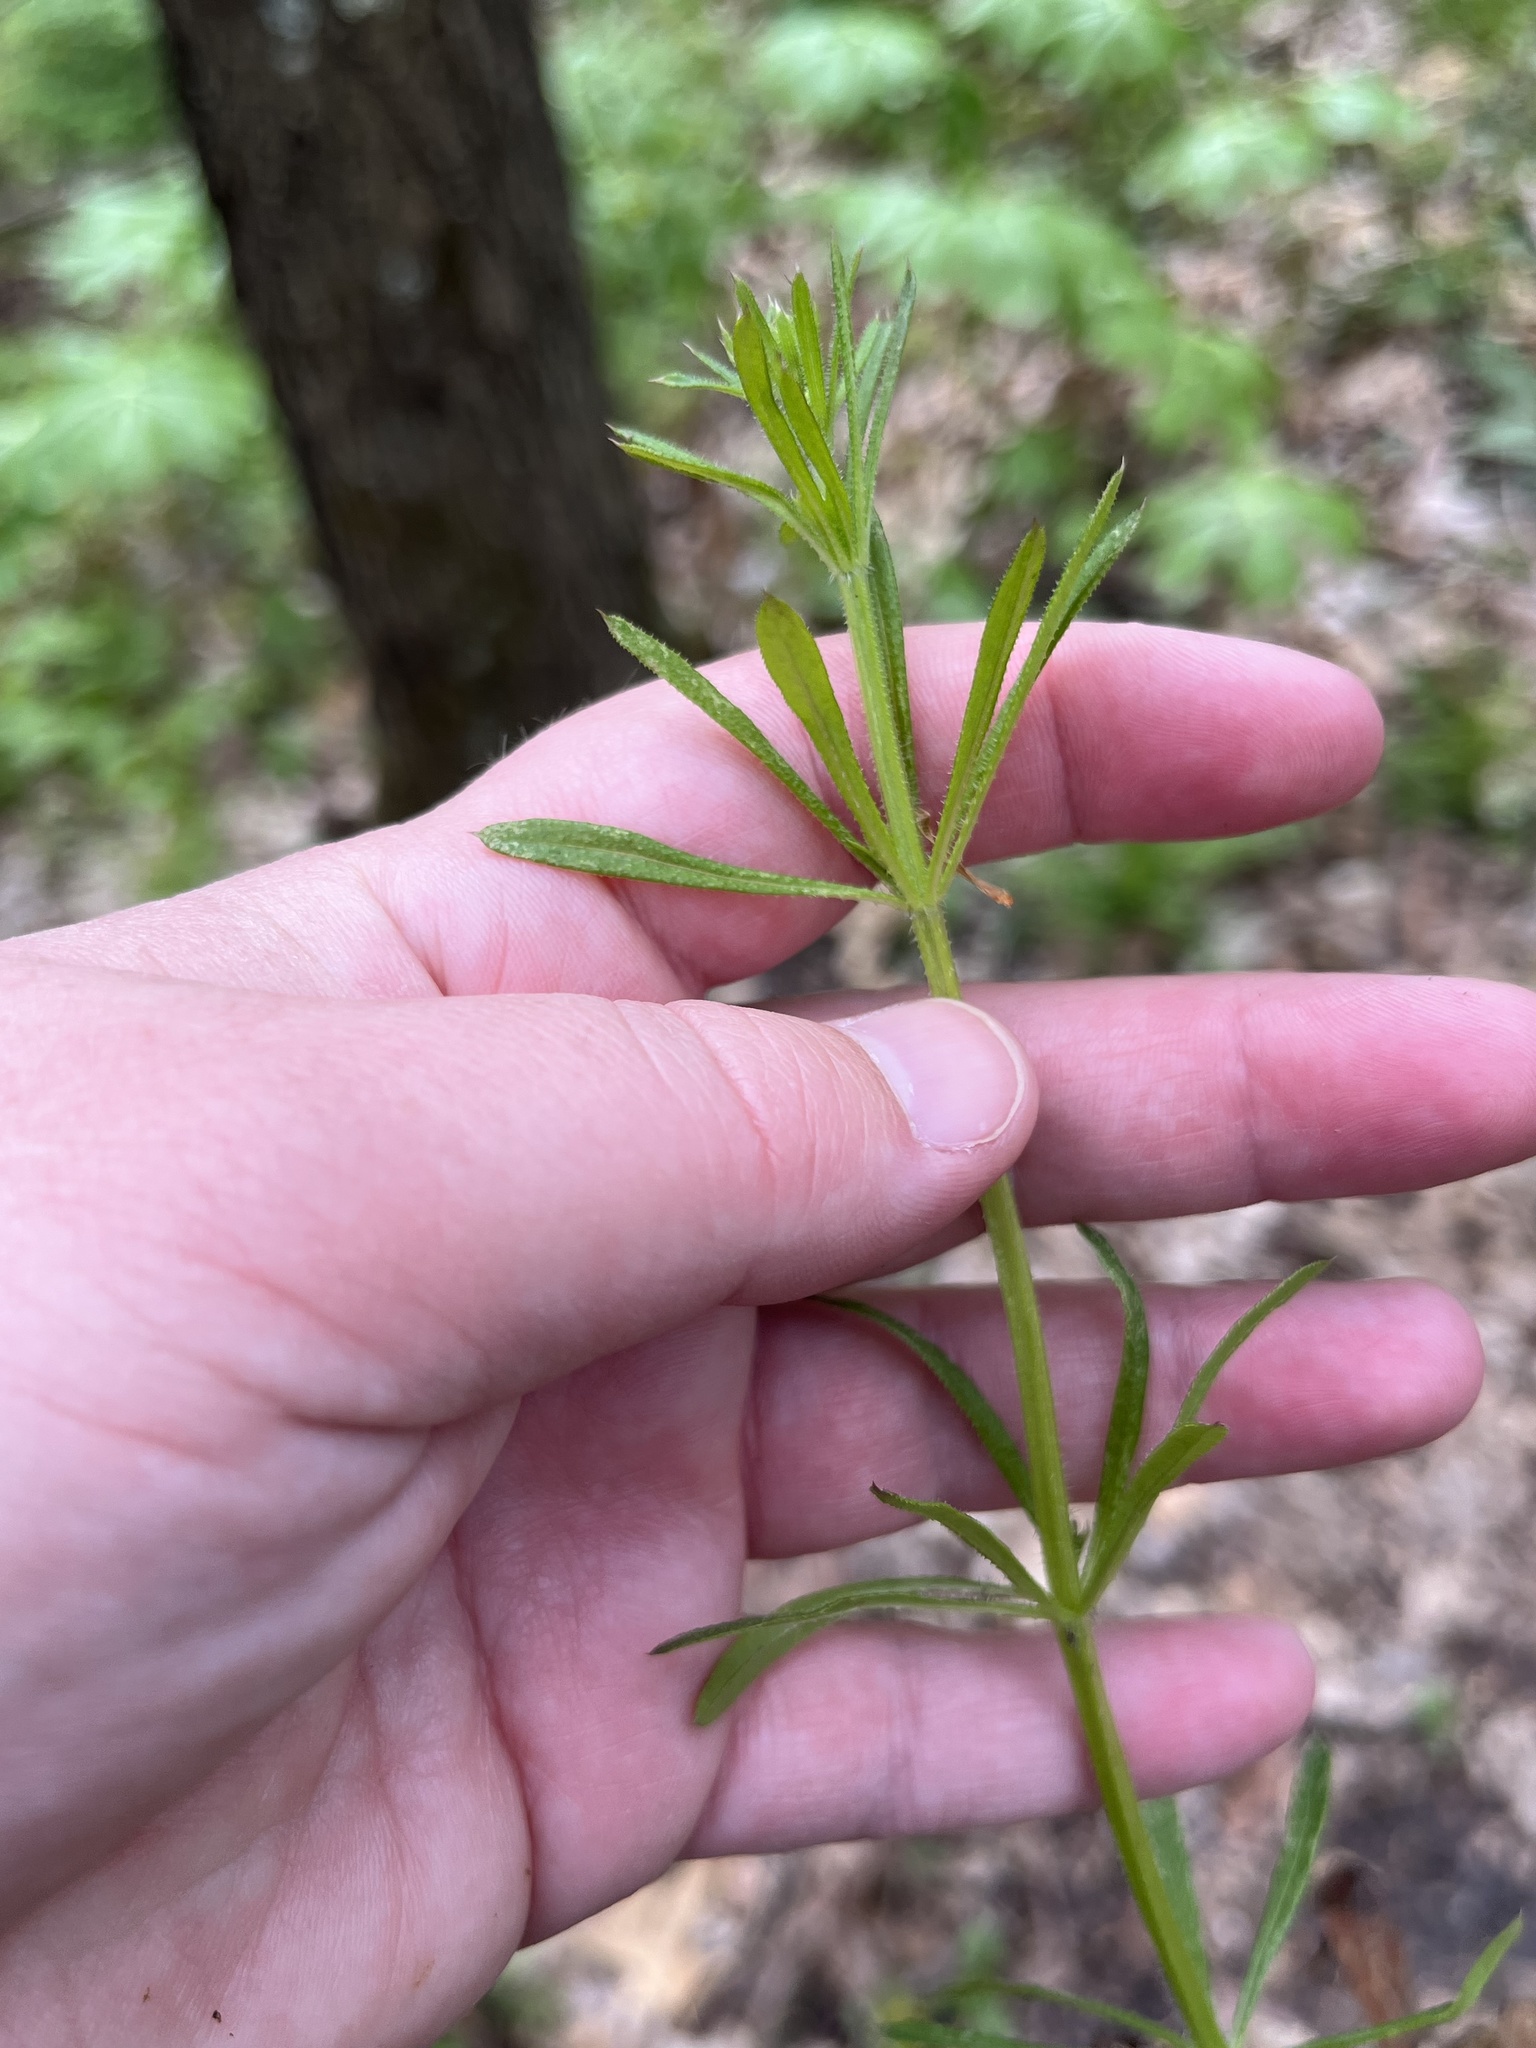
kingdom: Plantae
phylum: Tracheophyta
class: Magnoliopsida
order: Gentianales
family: Rubiaceae
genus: Galium
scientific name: Galium aparine
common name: Cleavers
